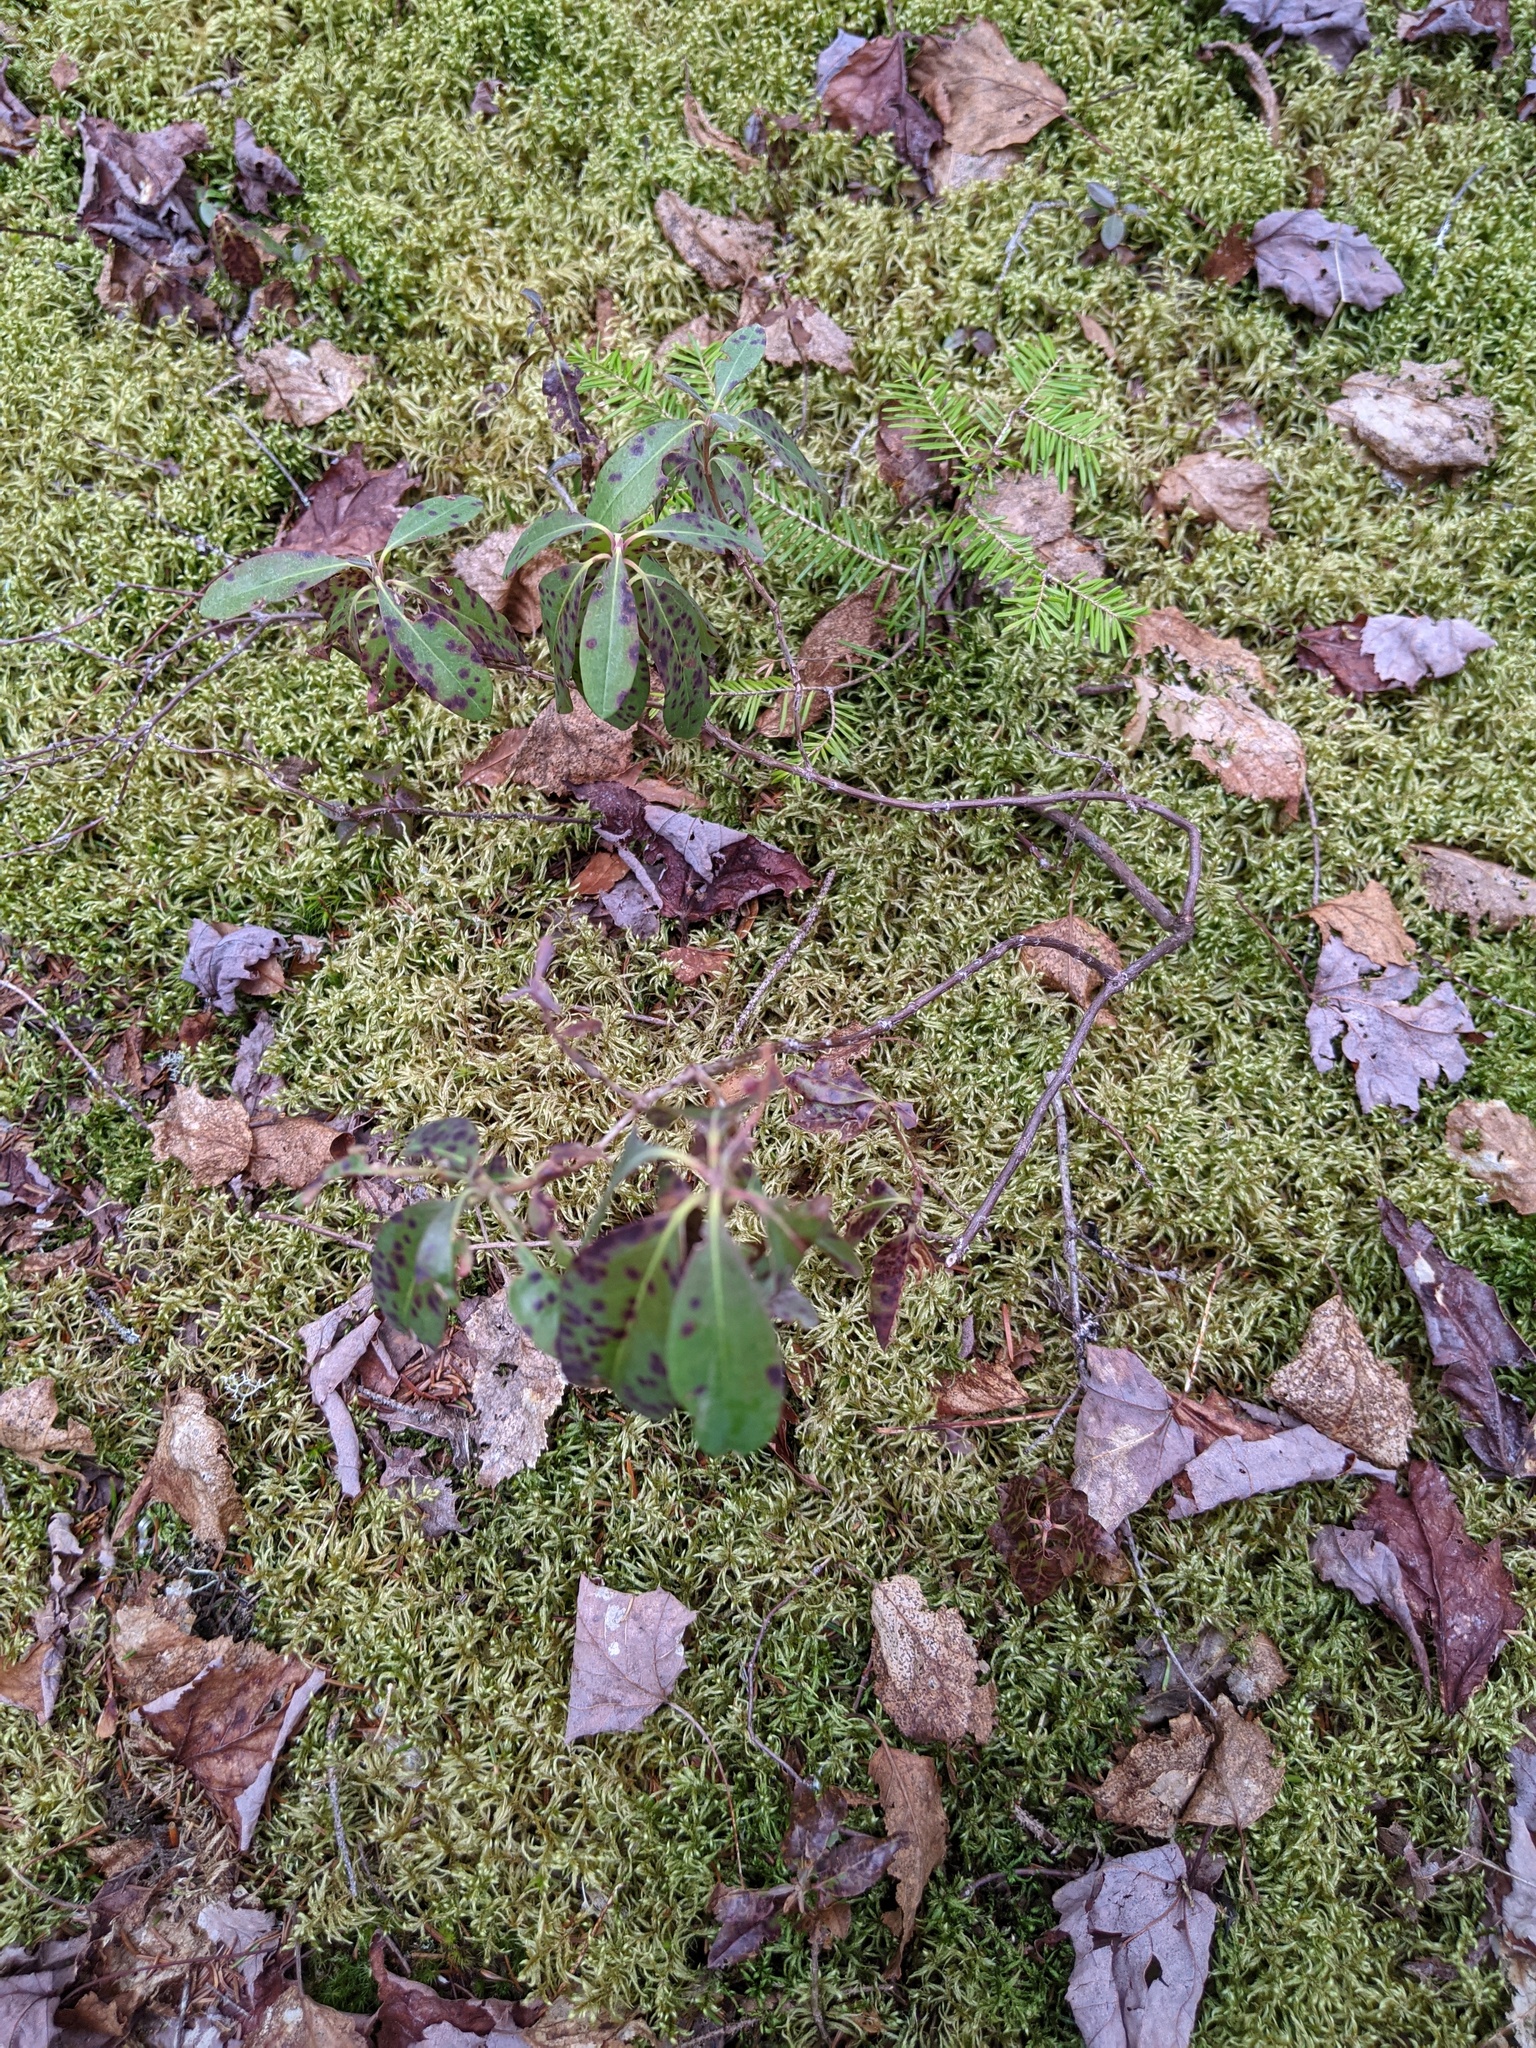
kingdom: Plantae
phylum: Tracheophyta
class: Magnoliopsida
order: Ericales
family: Ericaceae
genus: Kalmia
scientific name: Kalmia angustifolia
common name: Sheep-laurel
